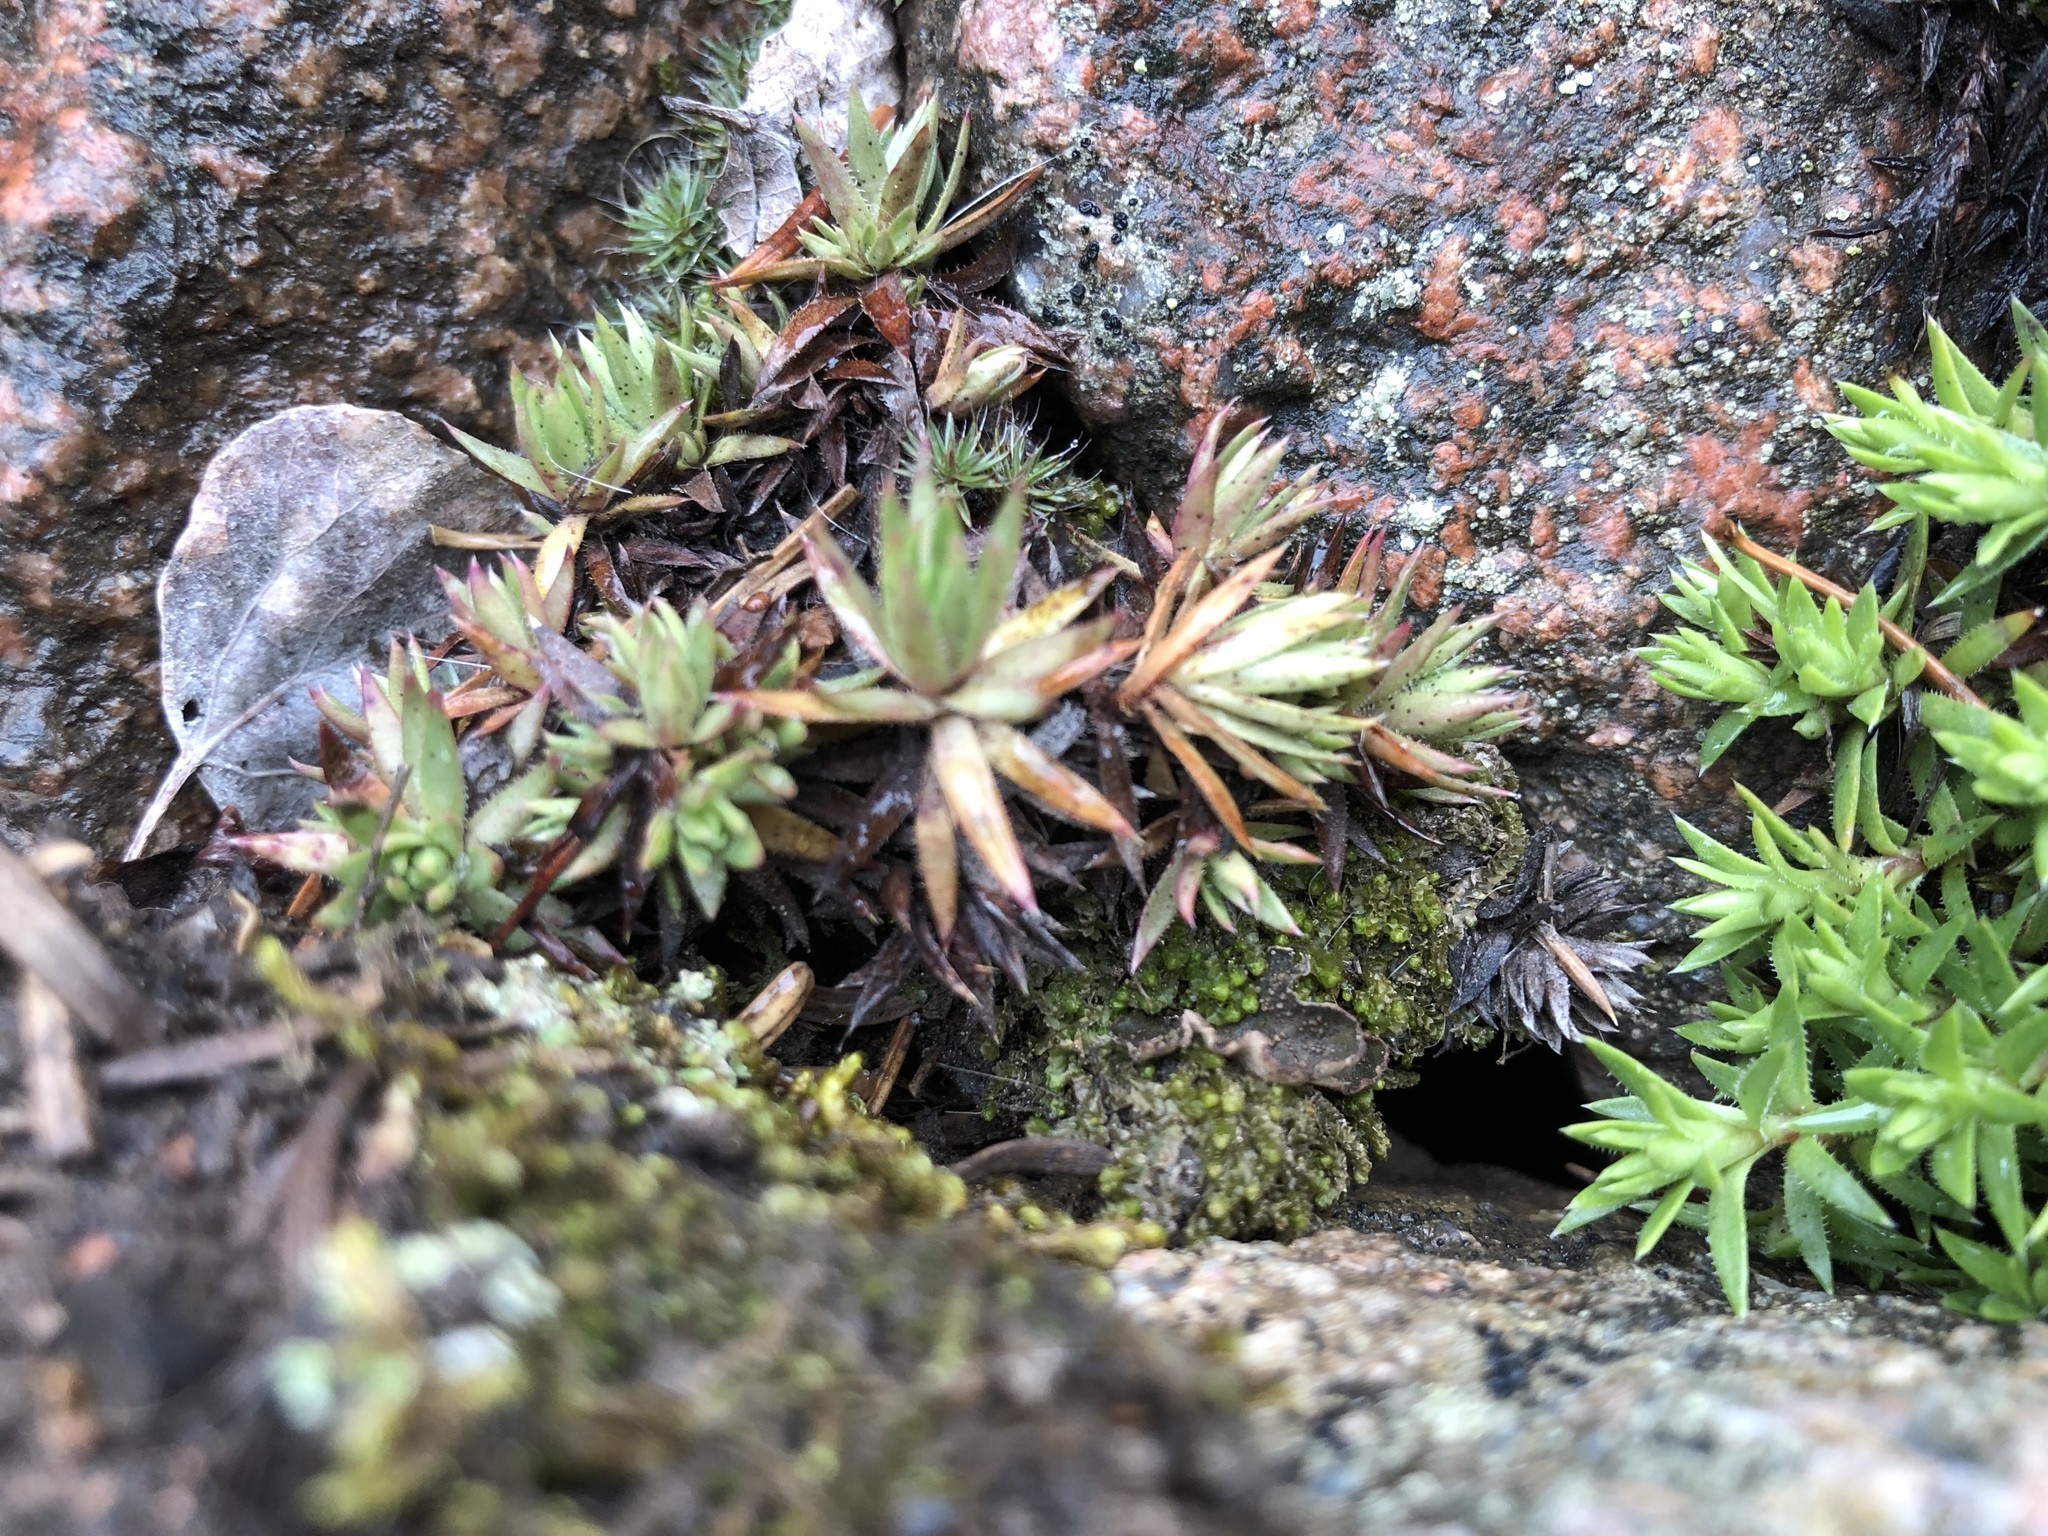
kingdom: Plantae
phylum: Tracheophyta
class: Magnoliopsida
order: Saxifragales
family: Crassulaceae
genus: Sedum
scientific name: Sedum lanceolatum
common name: Common stonecrop
